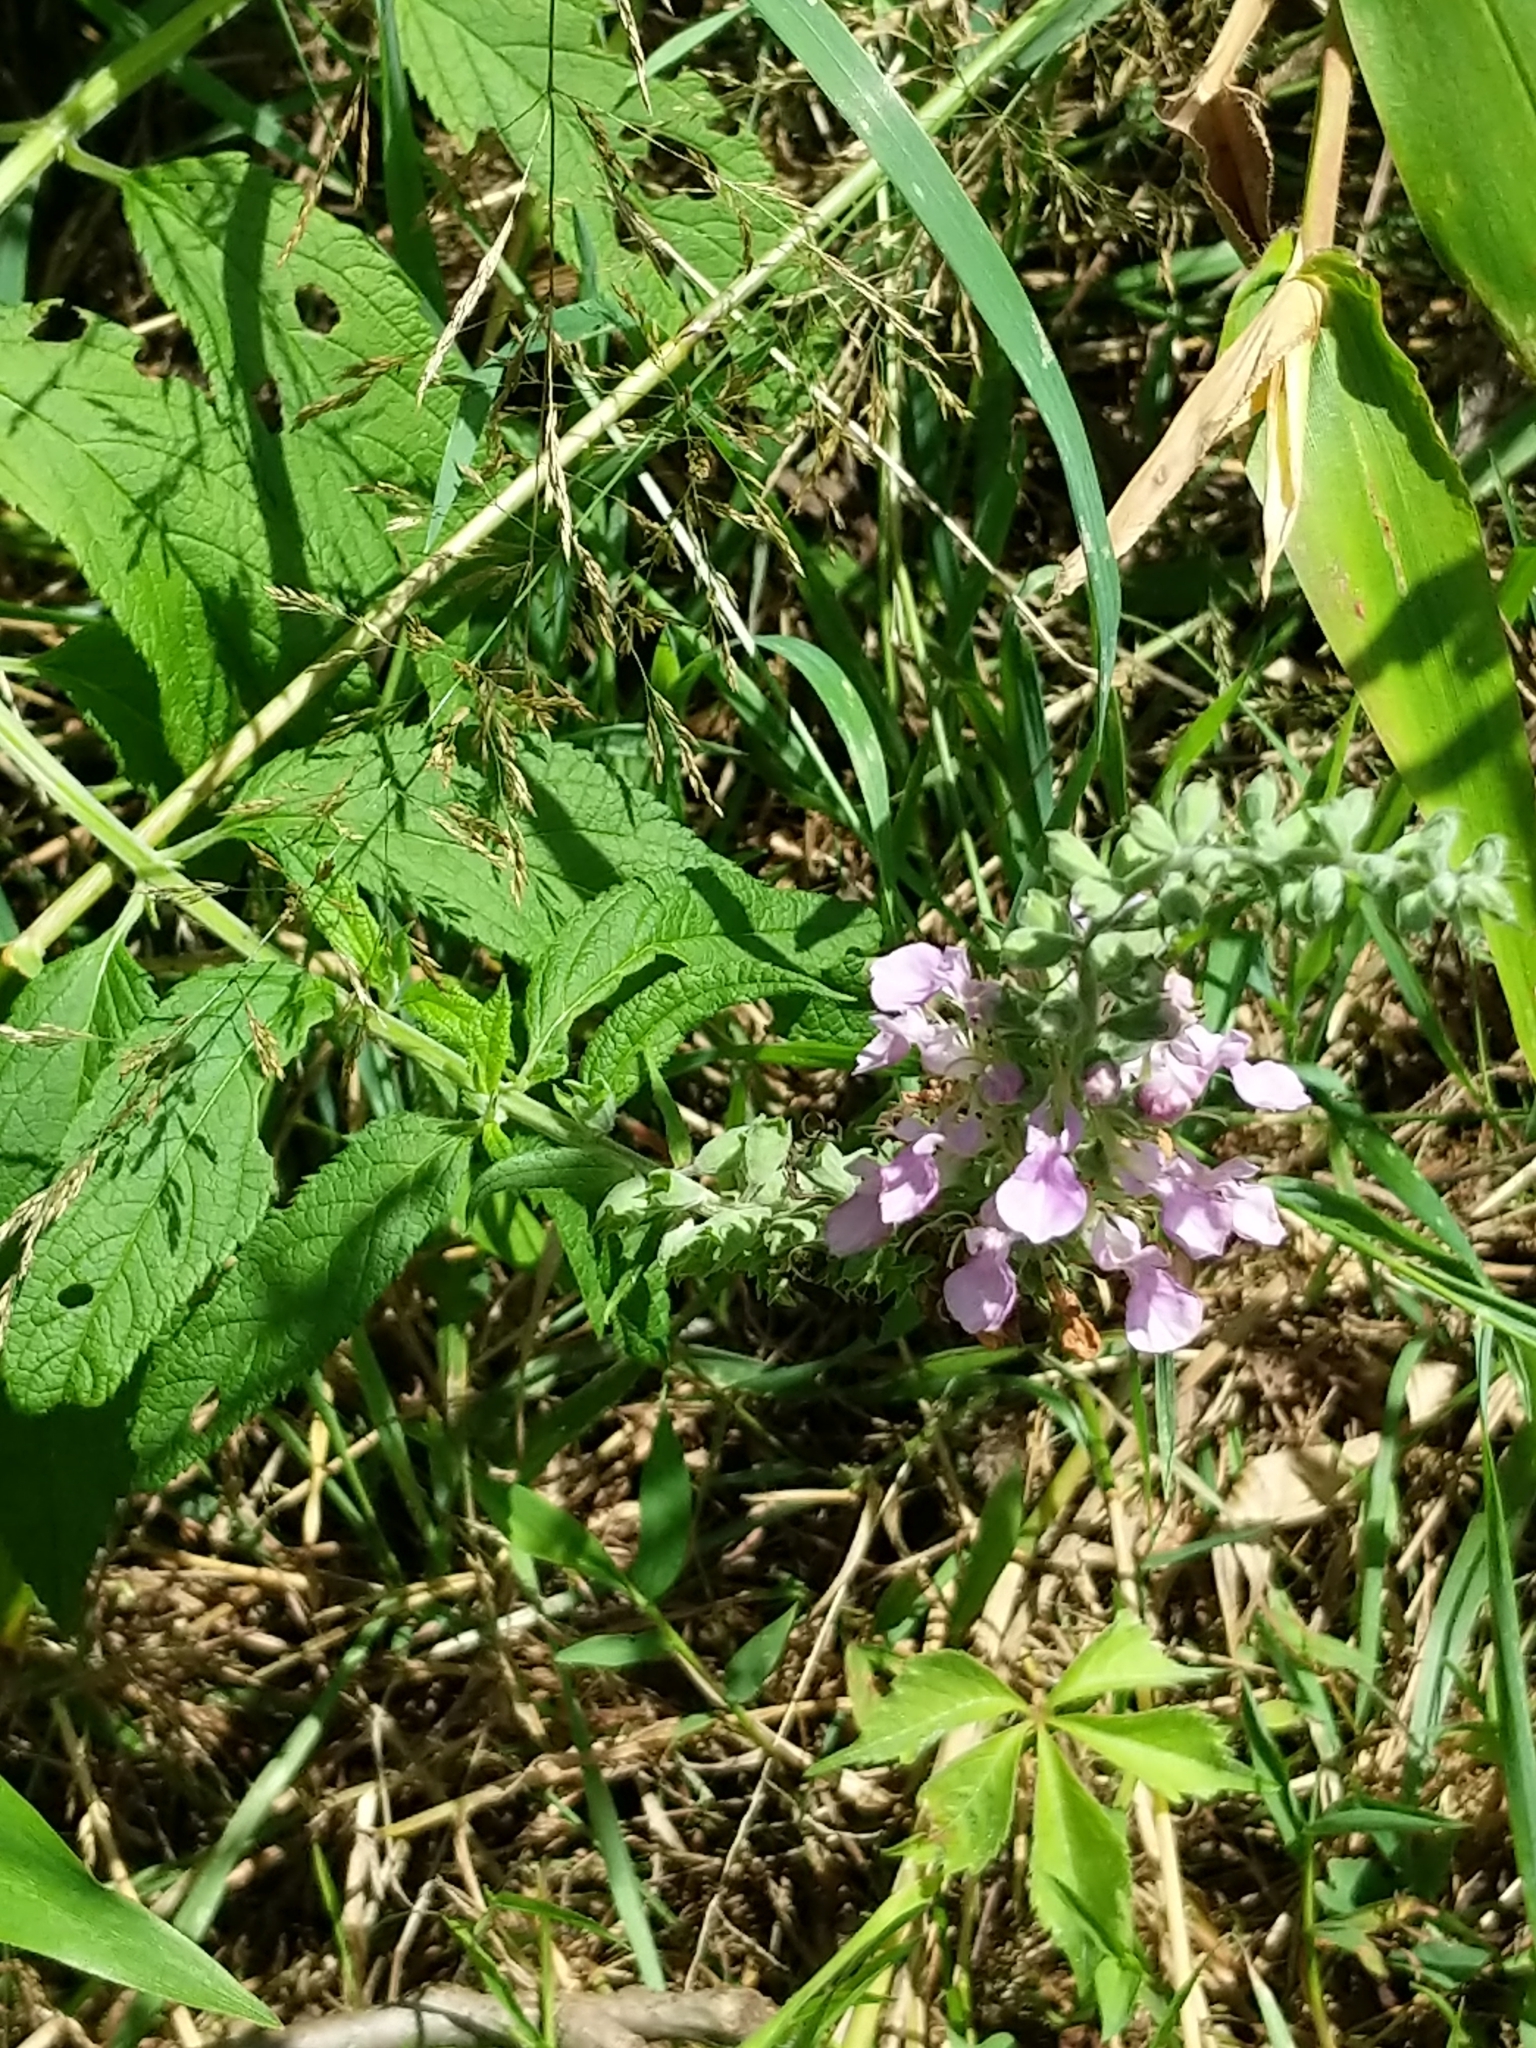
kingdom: Plantae
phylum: Tracheophyta
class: Magnoliopsida
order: Lamiales
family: Lamiaceae
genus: Teucrium
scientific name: Teucrium canadense
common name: American germander
